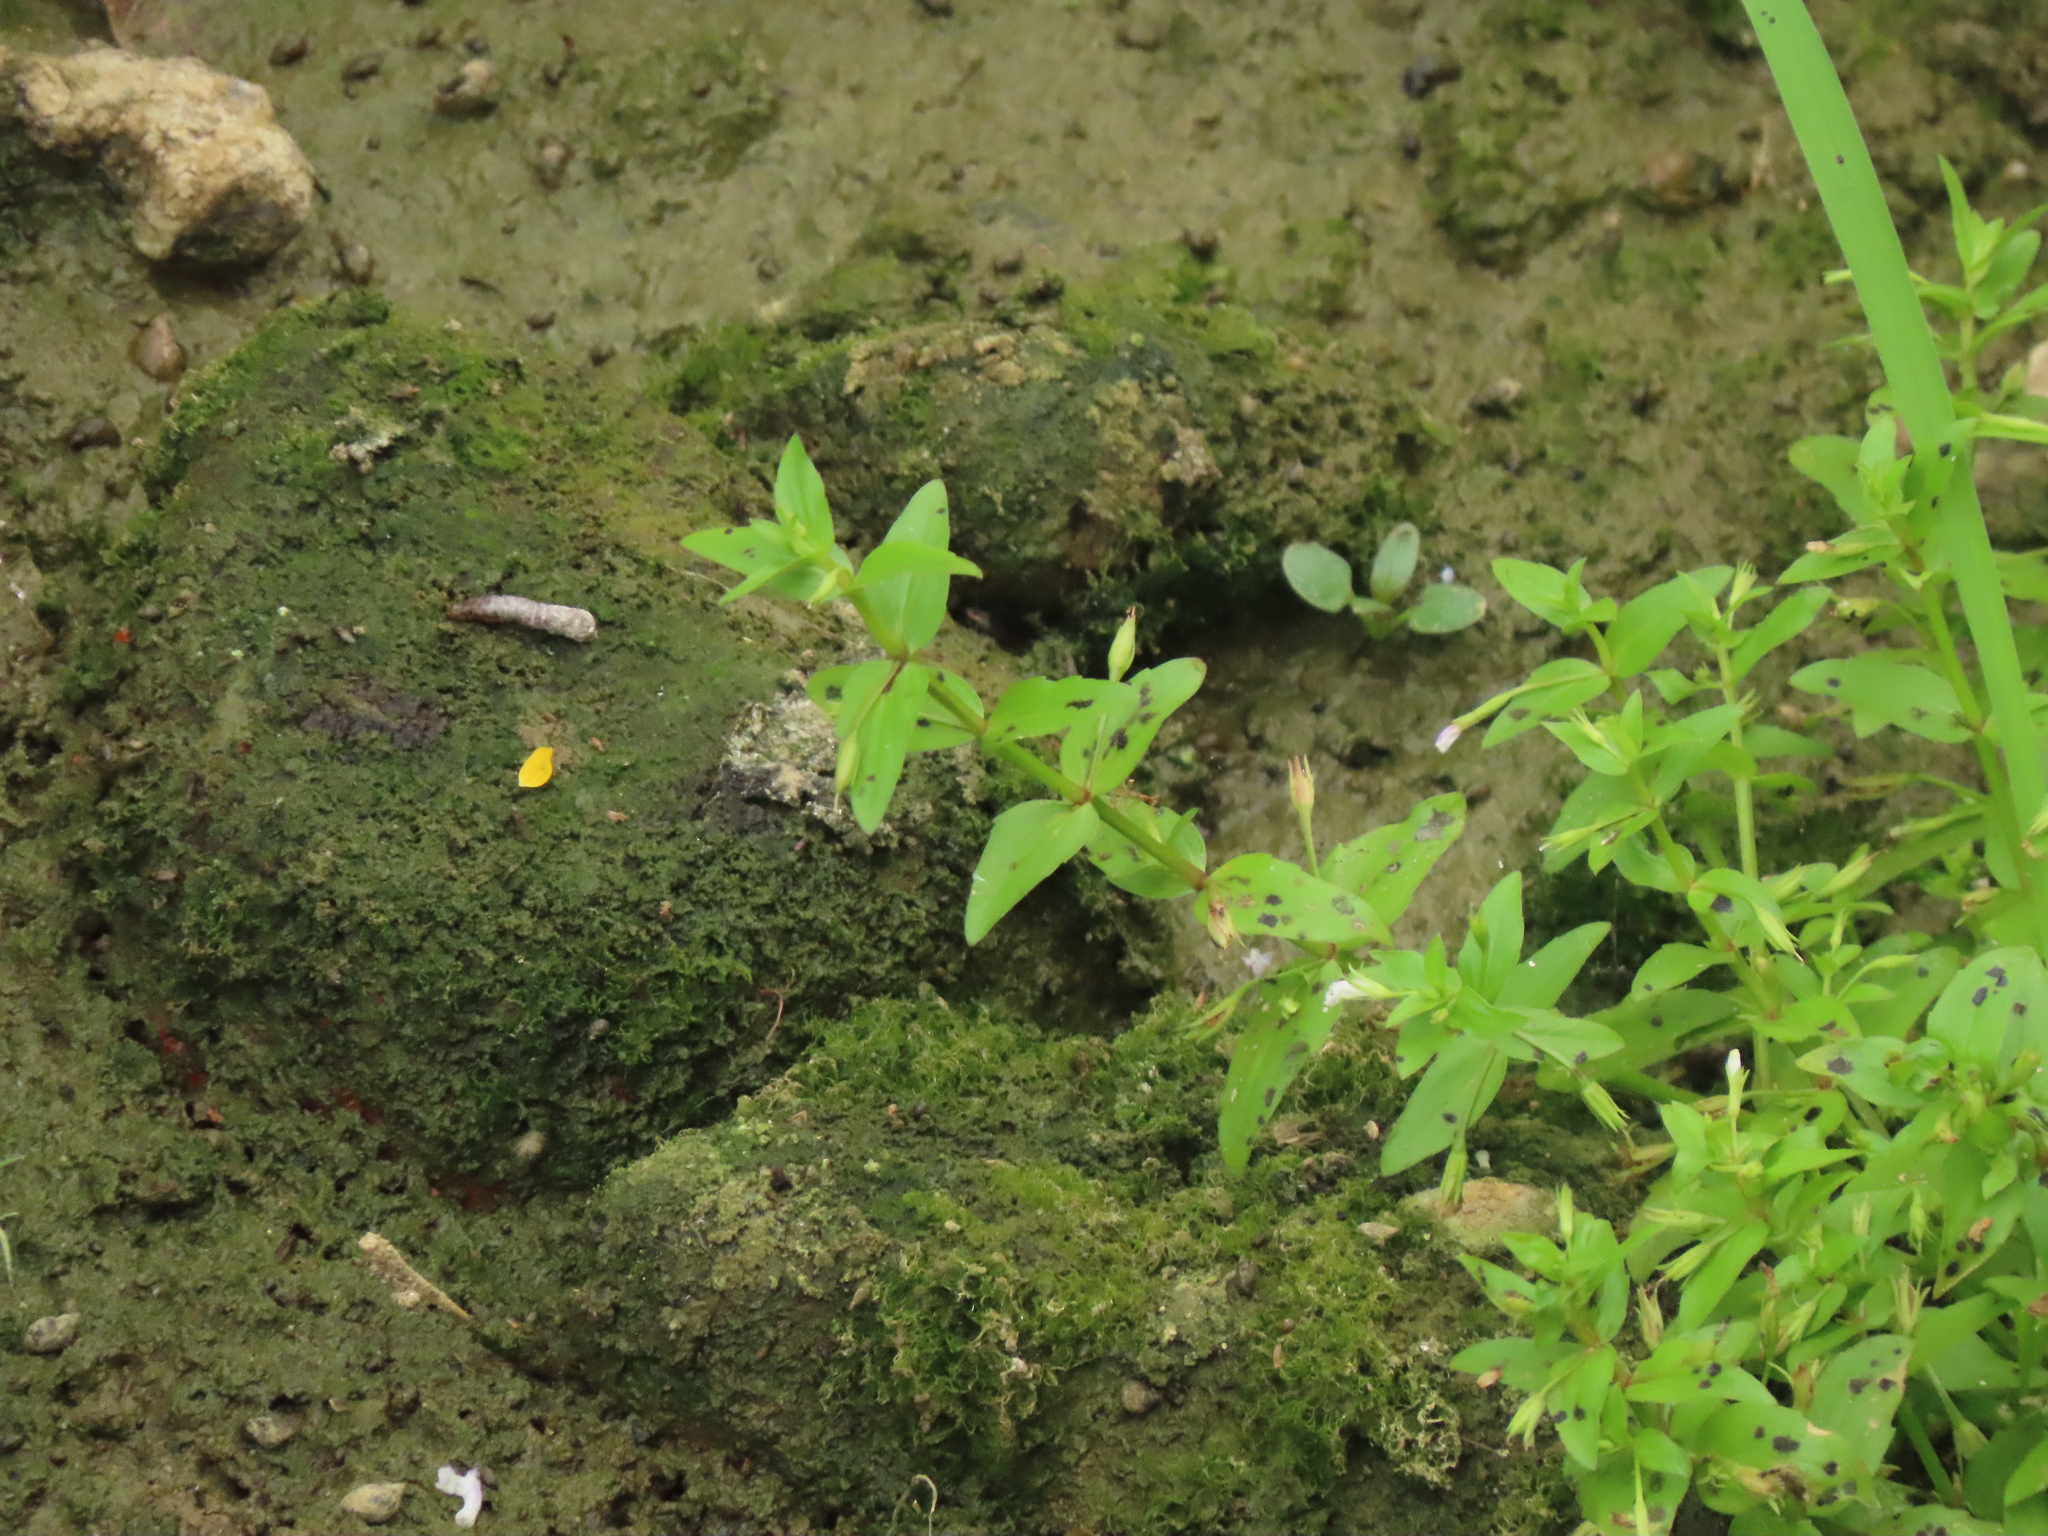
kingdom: Plantae
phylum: Tracheophyta
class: Magnoliopsida
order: Lamiales
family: Linderniaceae
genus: Lindernia
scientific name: Lindernia procumbens
